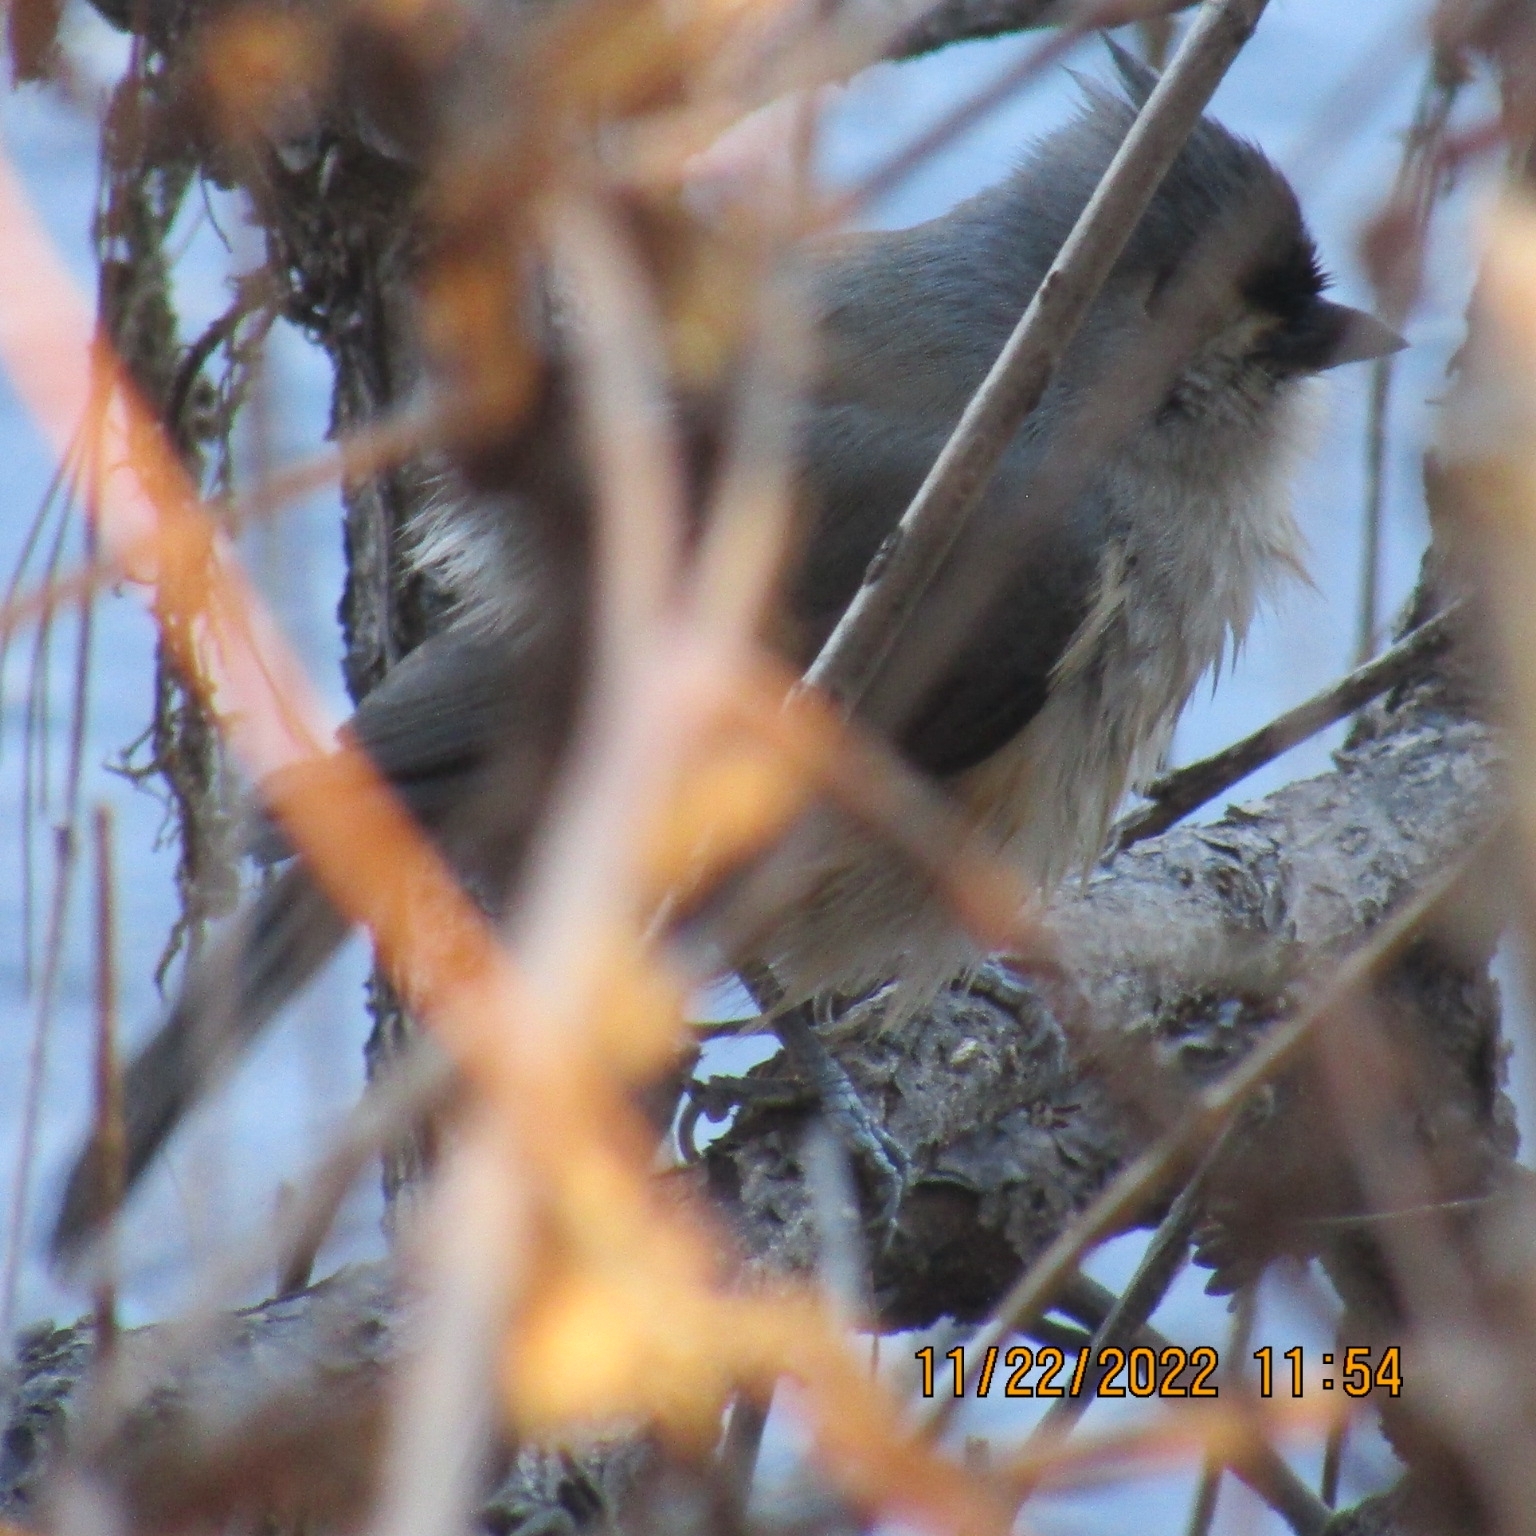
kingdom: Animalia
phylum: Chordata
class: Aves
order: Passeriformes
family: Paridae
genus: Baeolophus
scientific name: Baeolophus bicolor
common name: Tufted titmouse
